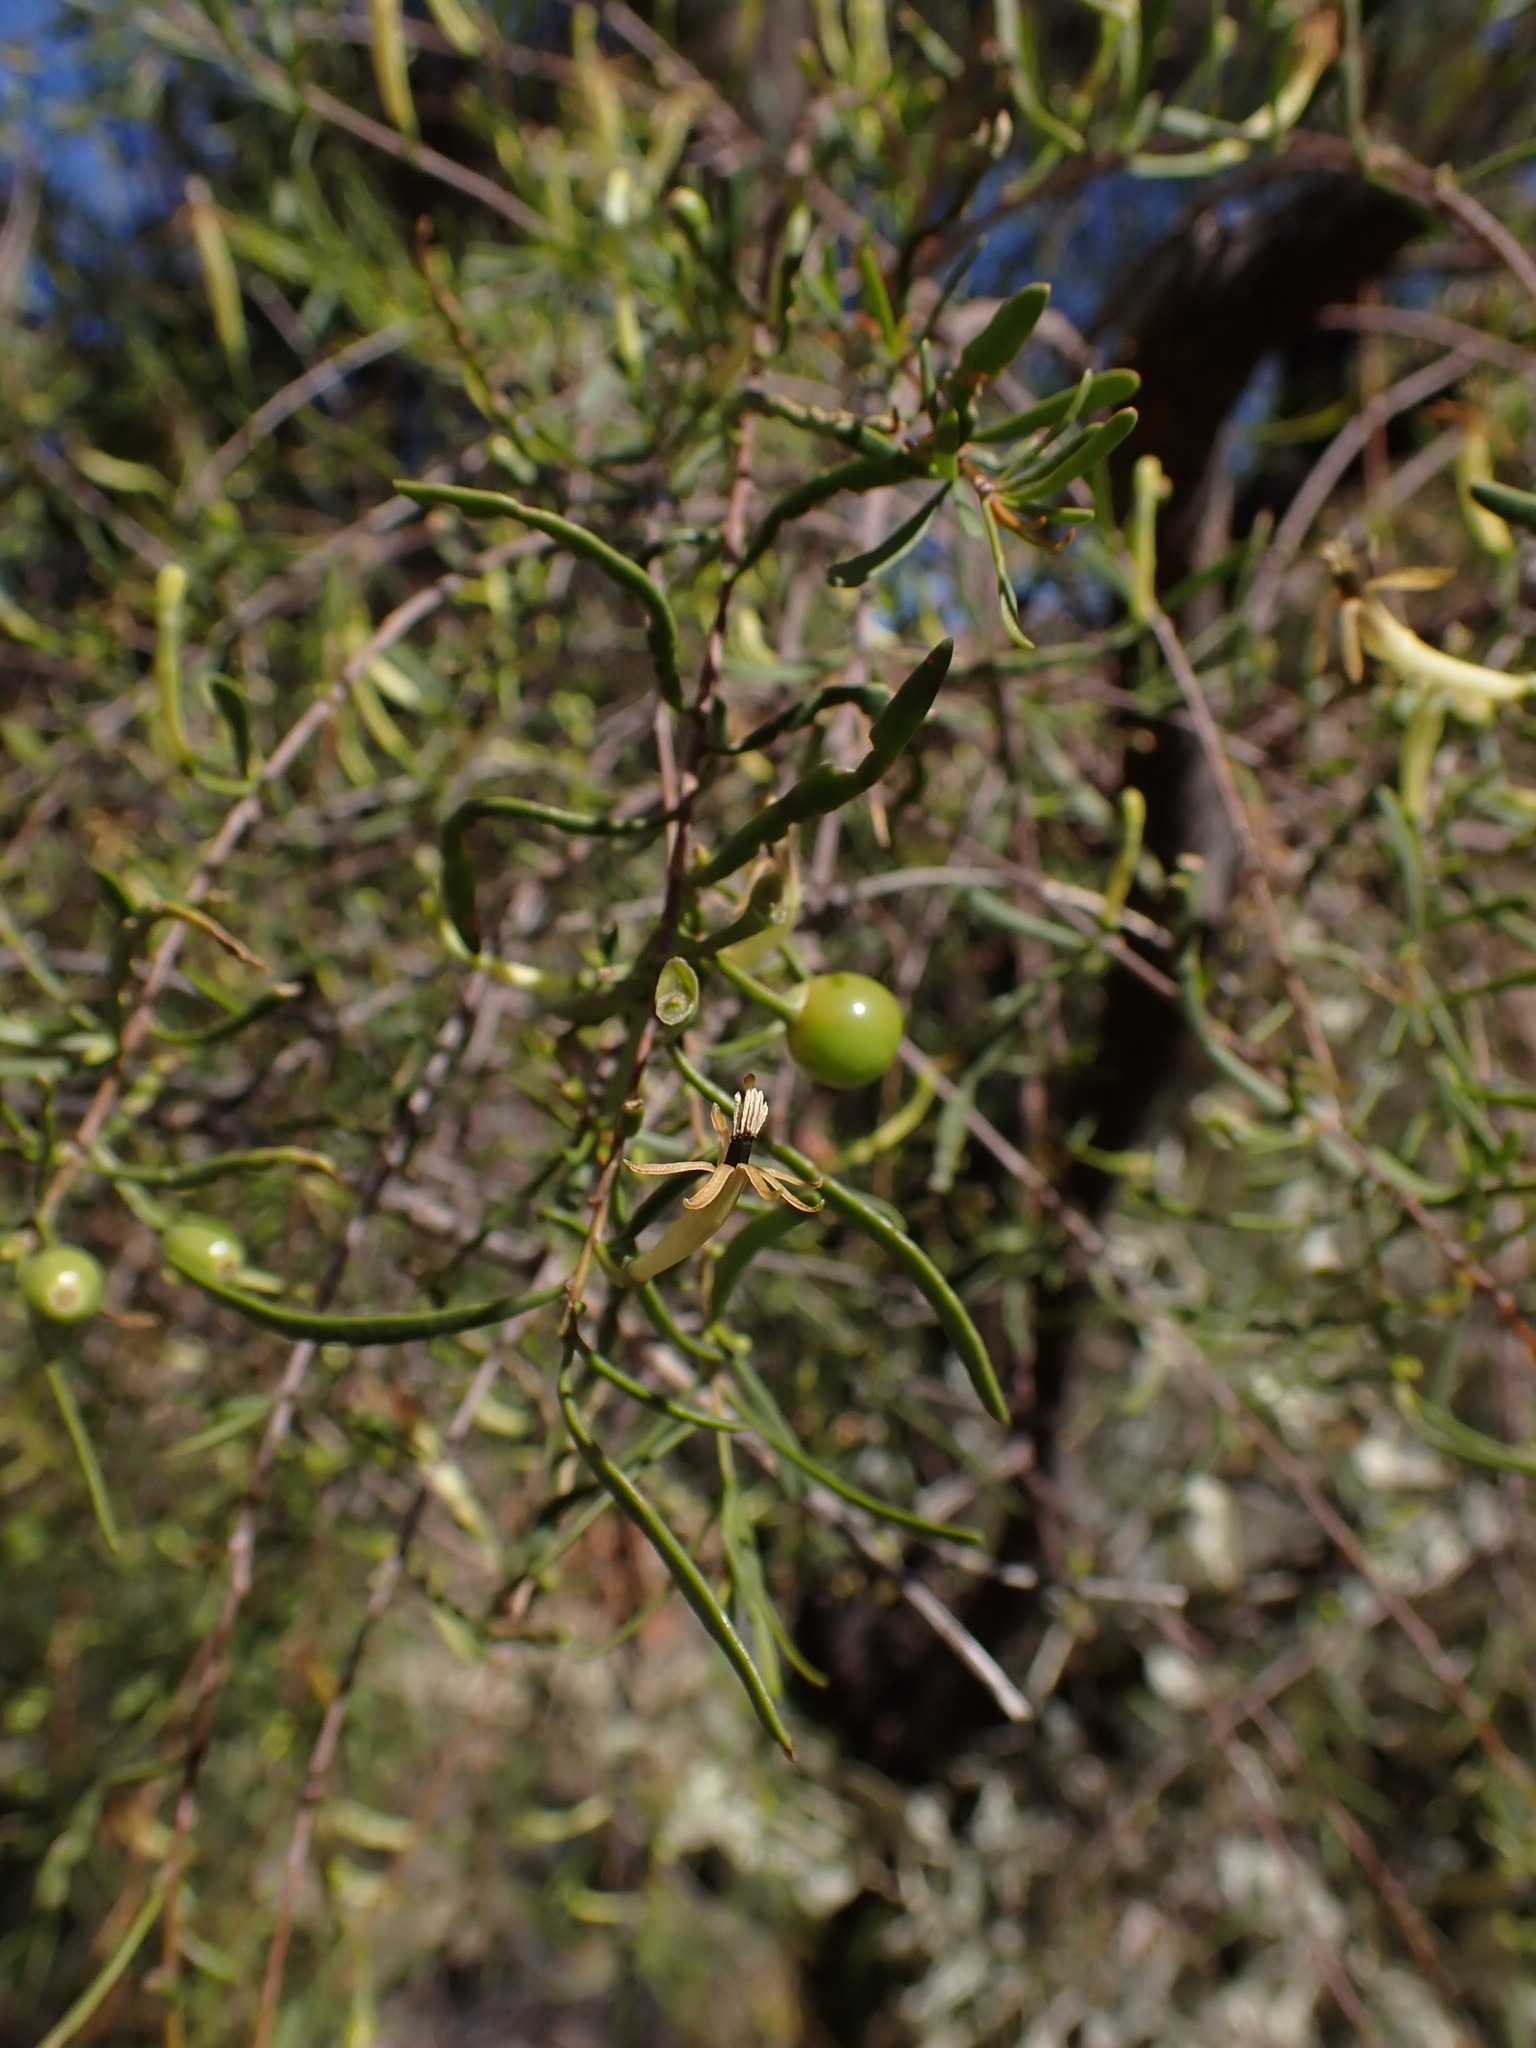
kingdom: Plantae
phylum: Tracheophyta
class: Magnoliopsida
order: Santalales
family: Loranthaceae
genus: Lysiana
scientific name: Lysiana murrayi
